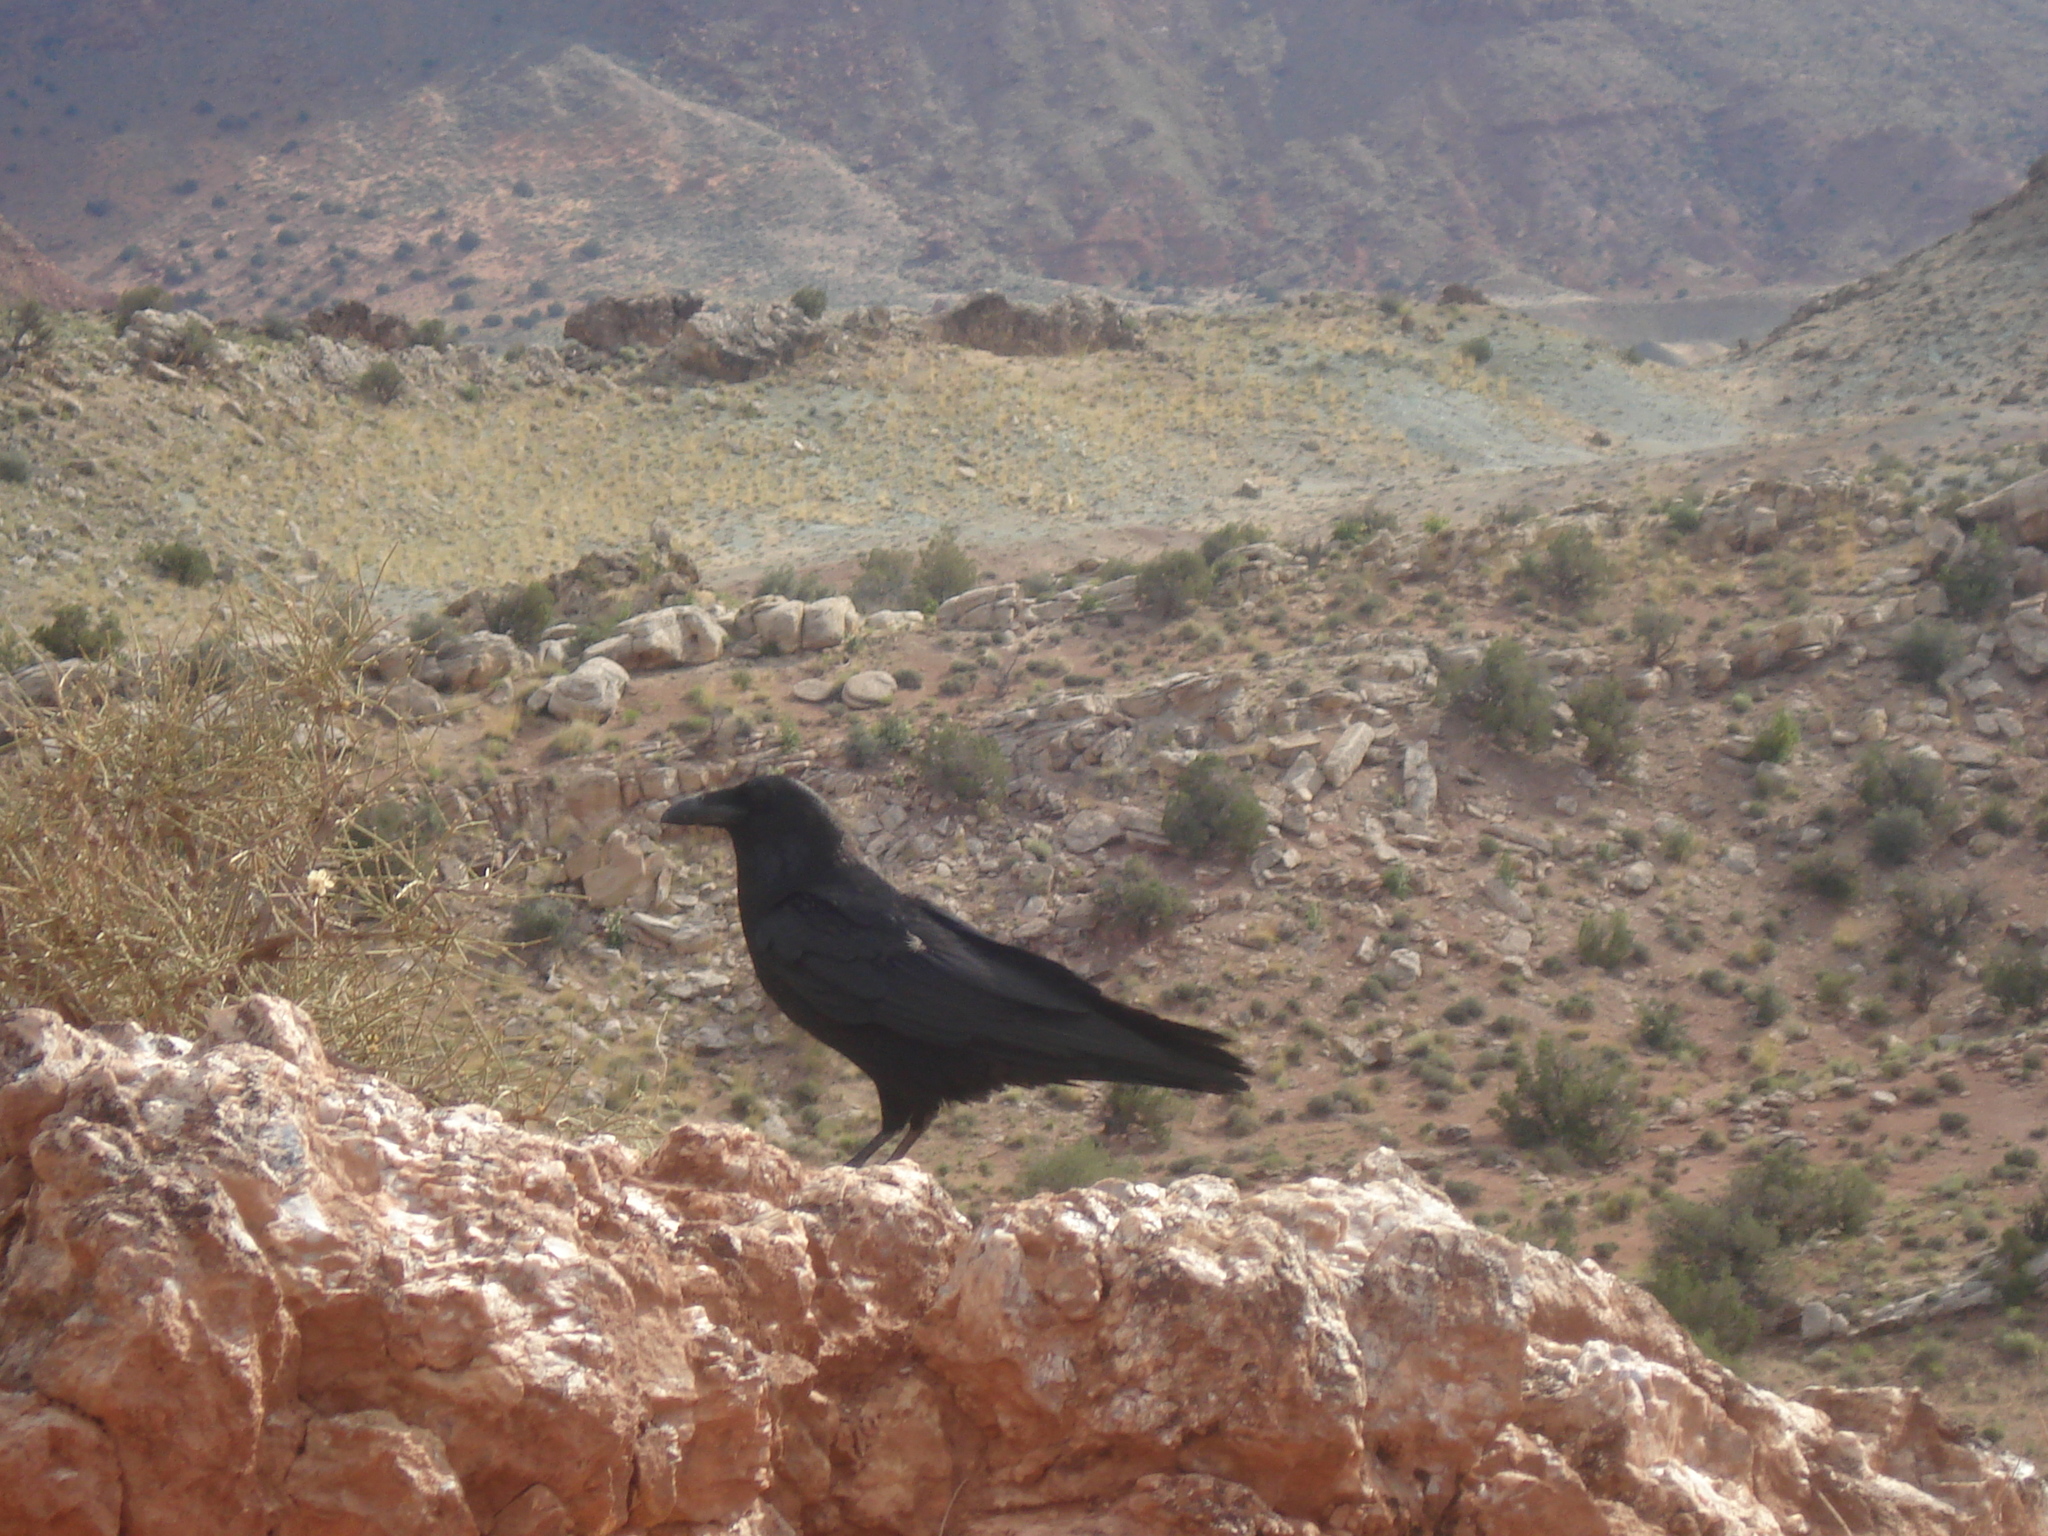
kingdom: Animalia
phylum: Chordata
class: Aves
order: Passeriformes
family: Corvidae
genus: Corvus
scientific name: Corvus corax
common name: Common raven
